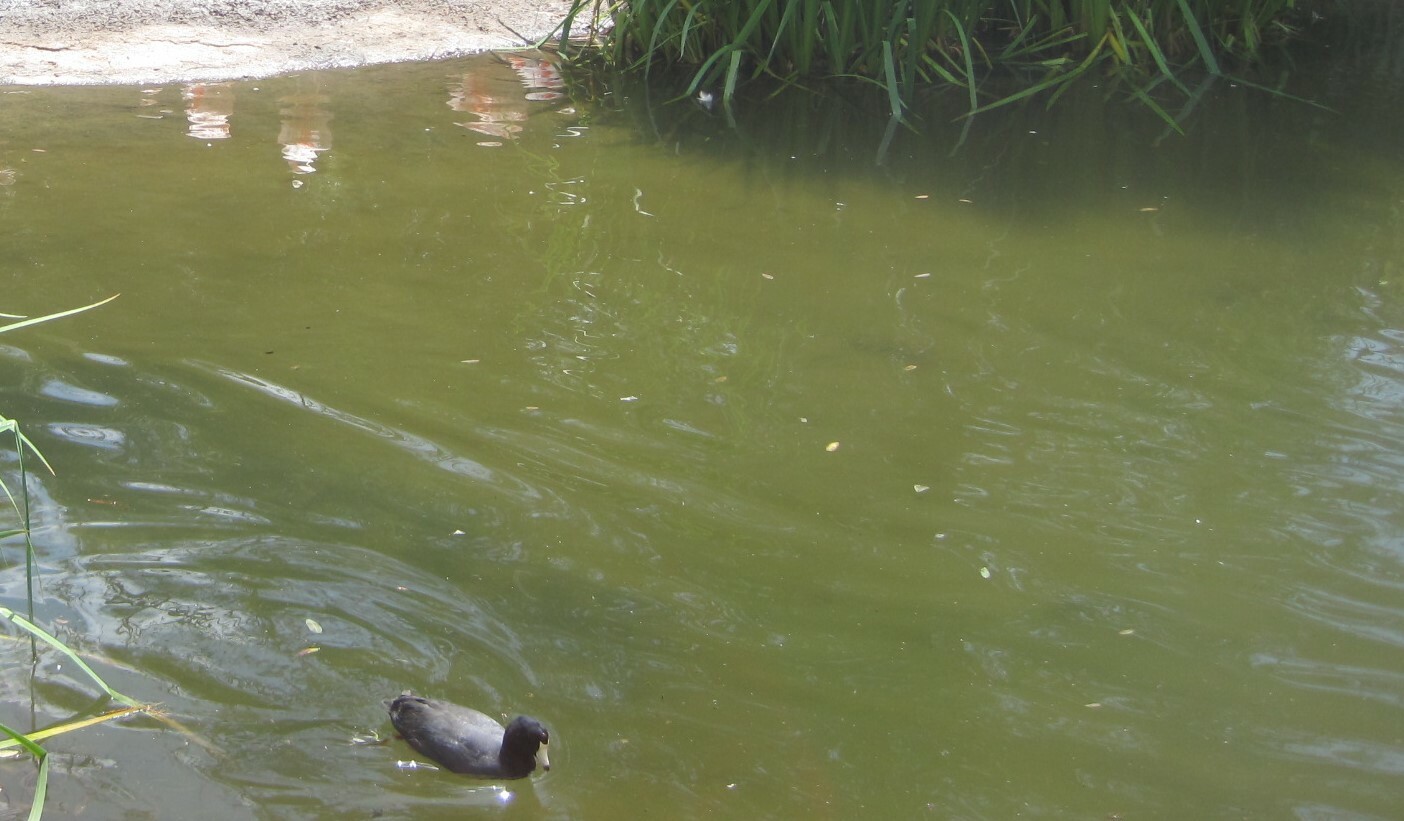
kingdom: Animalia
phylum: Chordata
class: Aves
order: Gruiformes
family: Rallidae
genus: Fulica
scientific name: Fulica americana
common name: American coot
